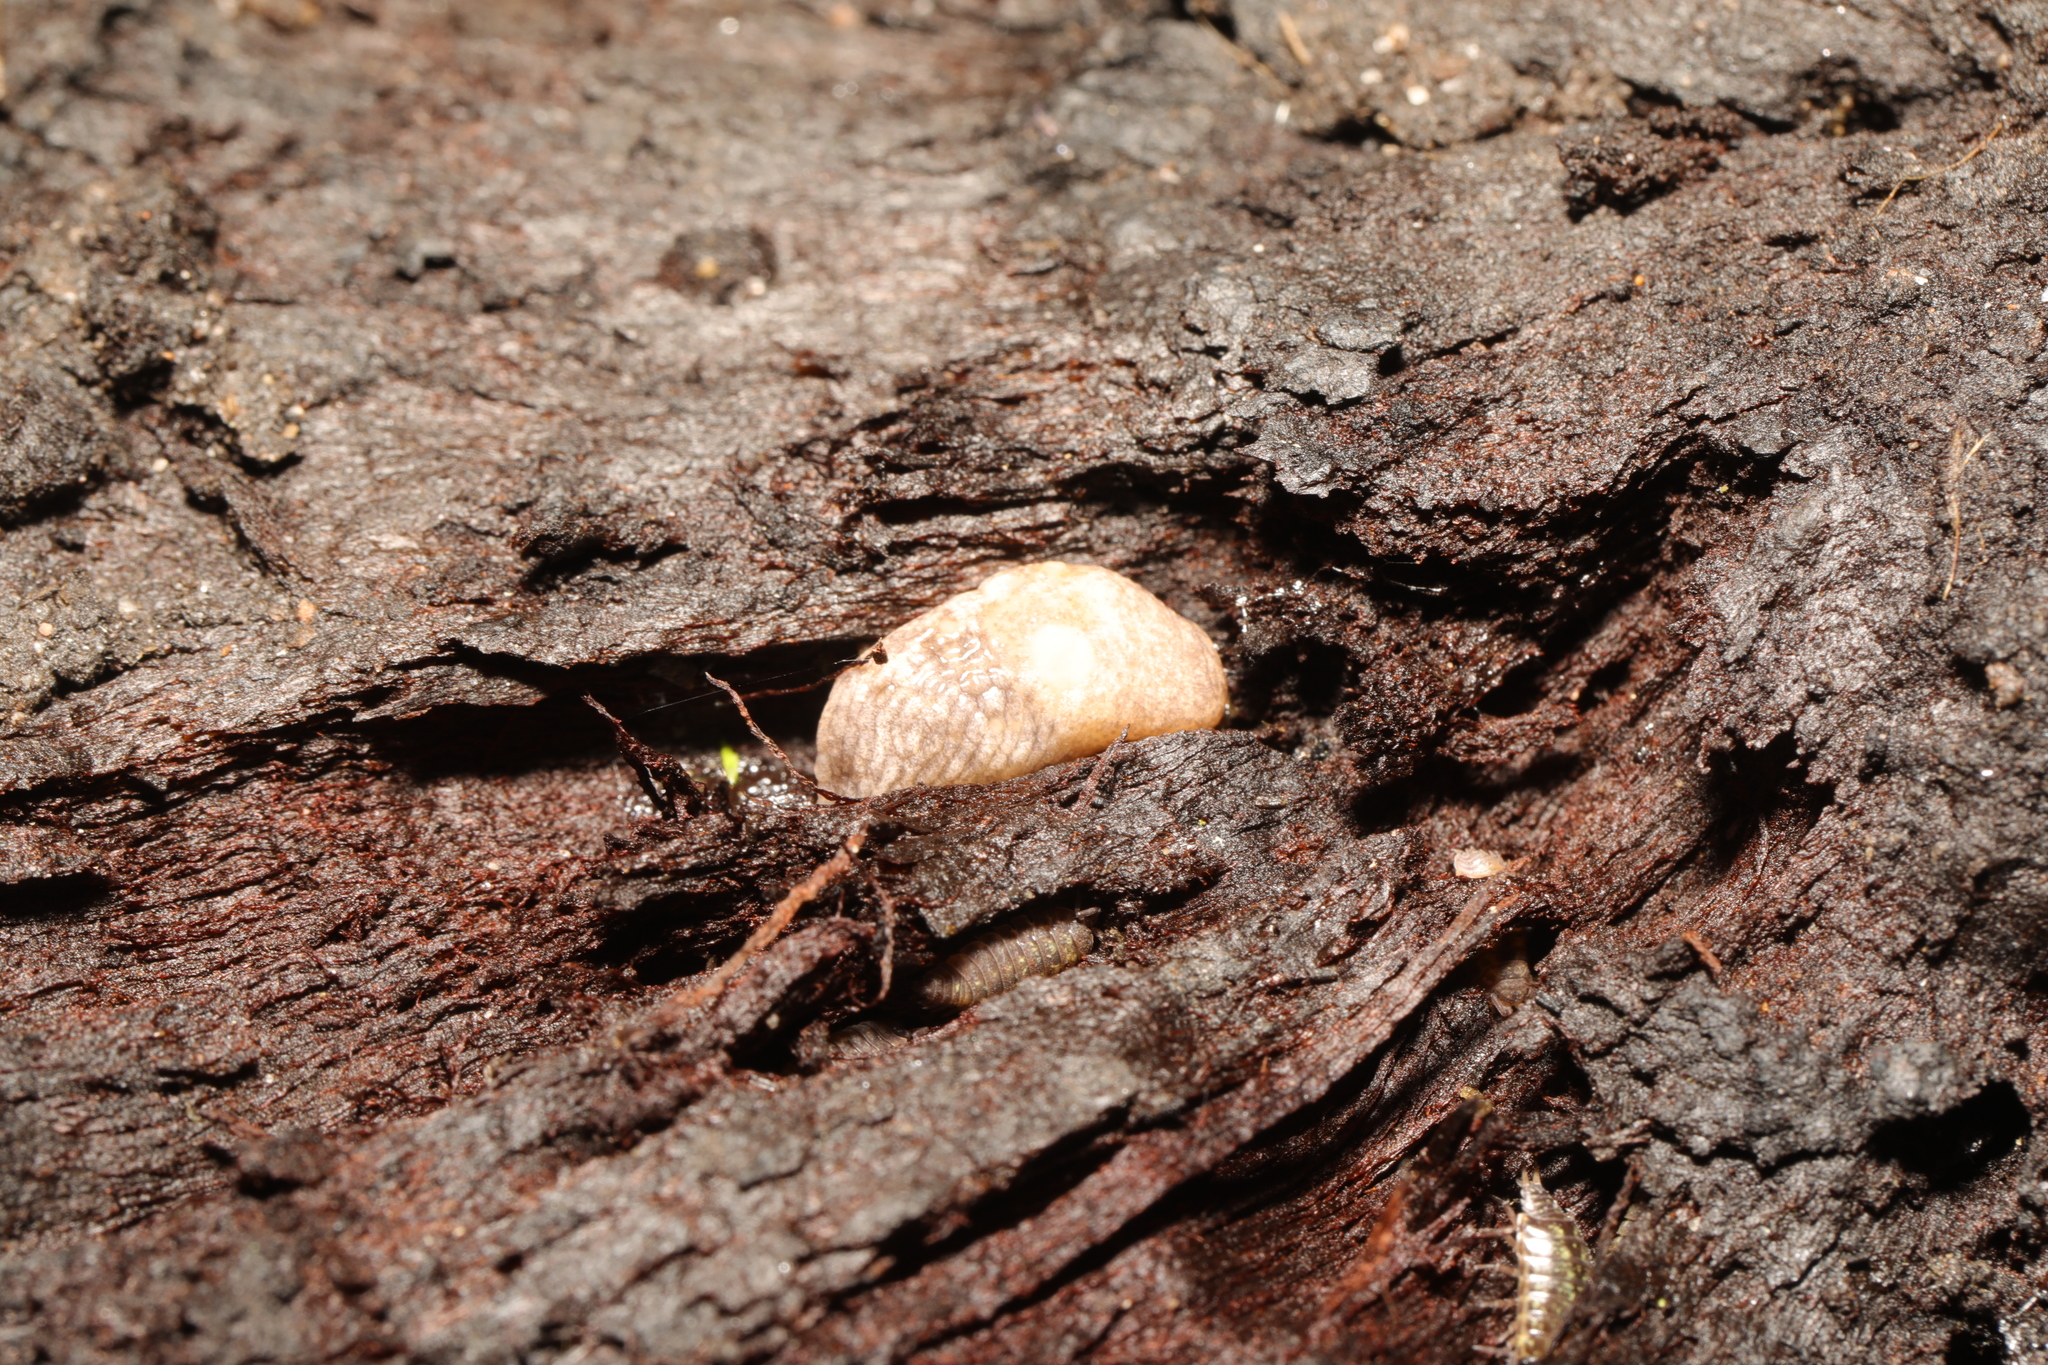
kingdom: Animalia
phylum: Mollusca
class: Gastropoda
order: Stylommatophora
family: Agriolimacidae
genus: Deroceras
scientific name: Deroceras reticulatum
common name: Gray field slug
